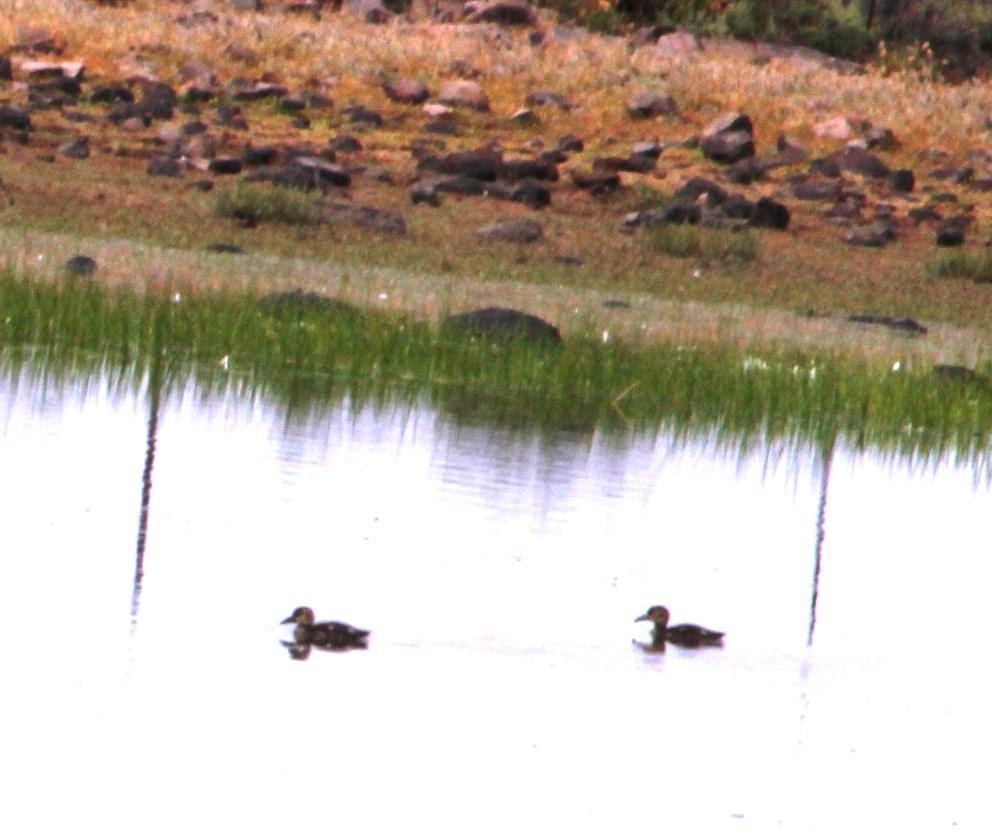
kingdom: Animalia
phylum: Chordata
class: Aves
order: Anseriformes
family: Anatidae
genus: Spatula
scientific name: Spatula smithii
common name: Cape shoveler
